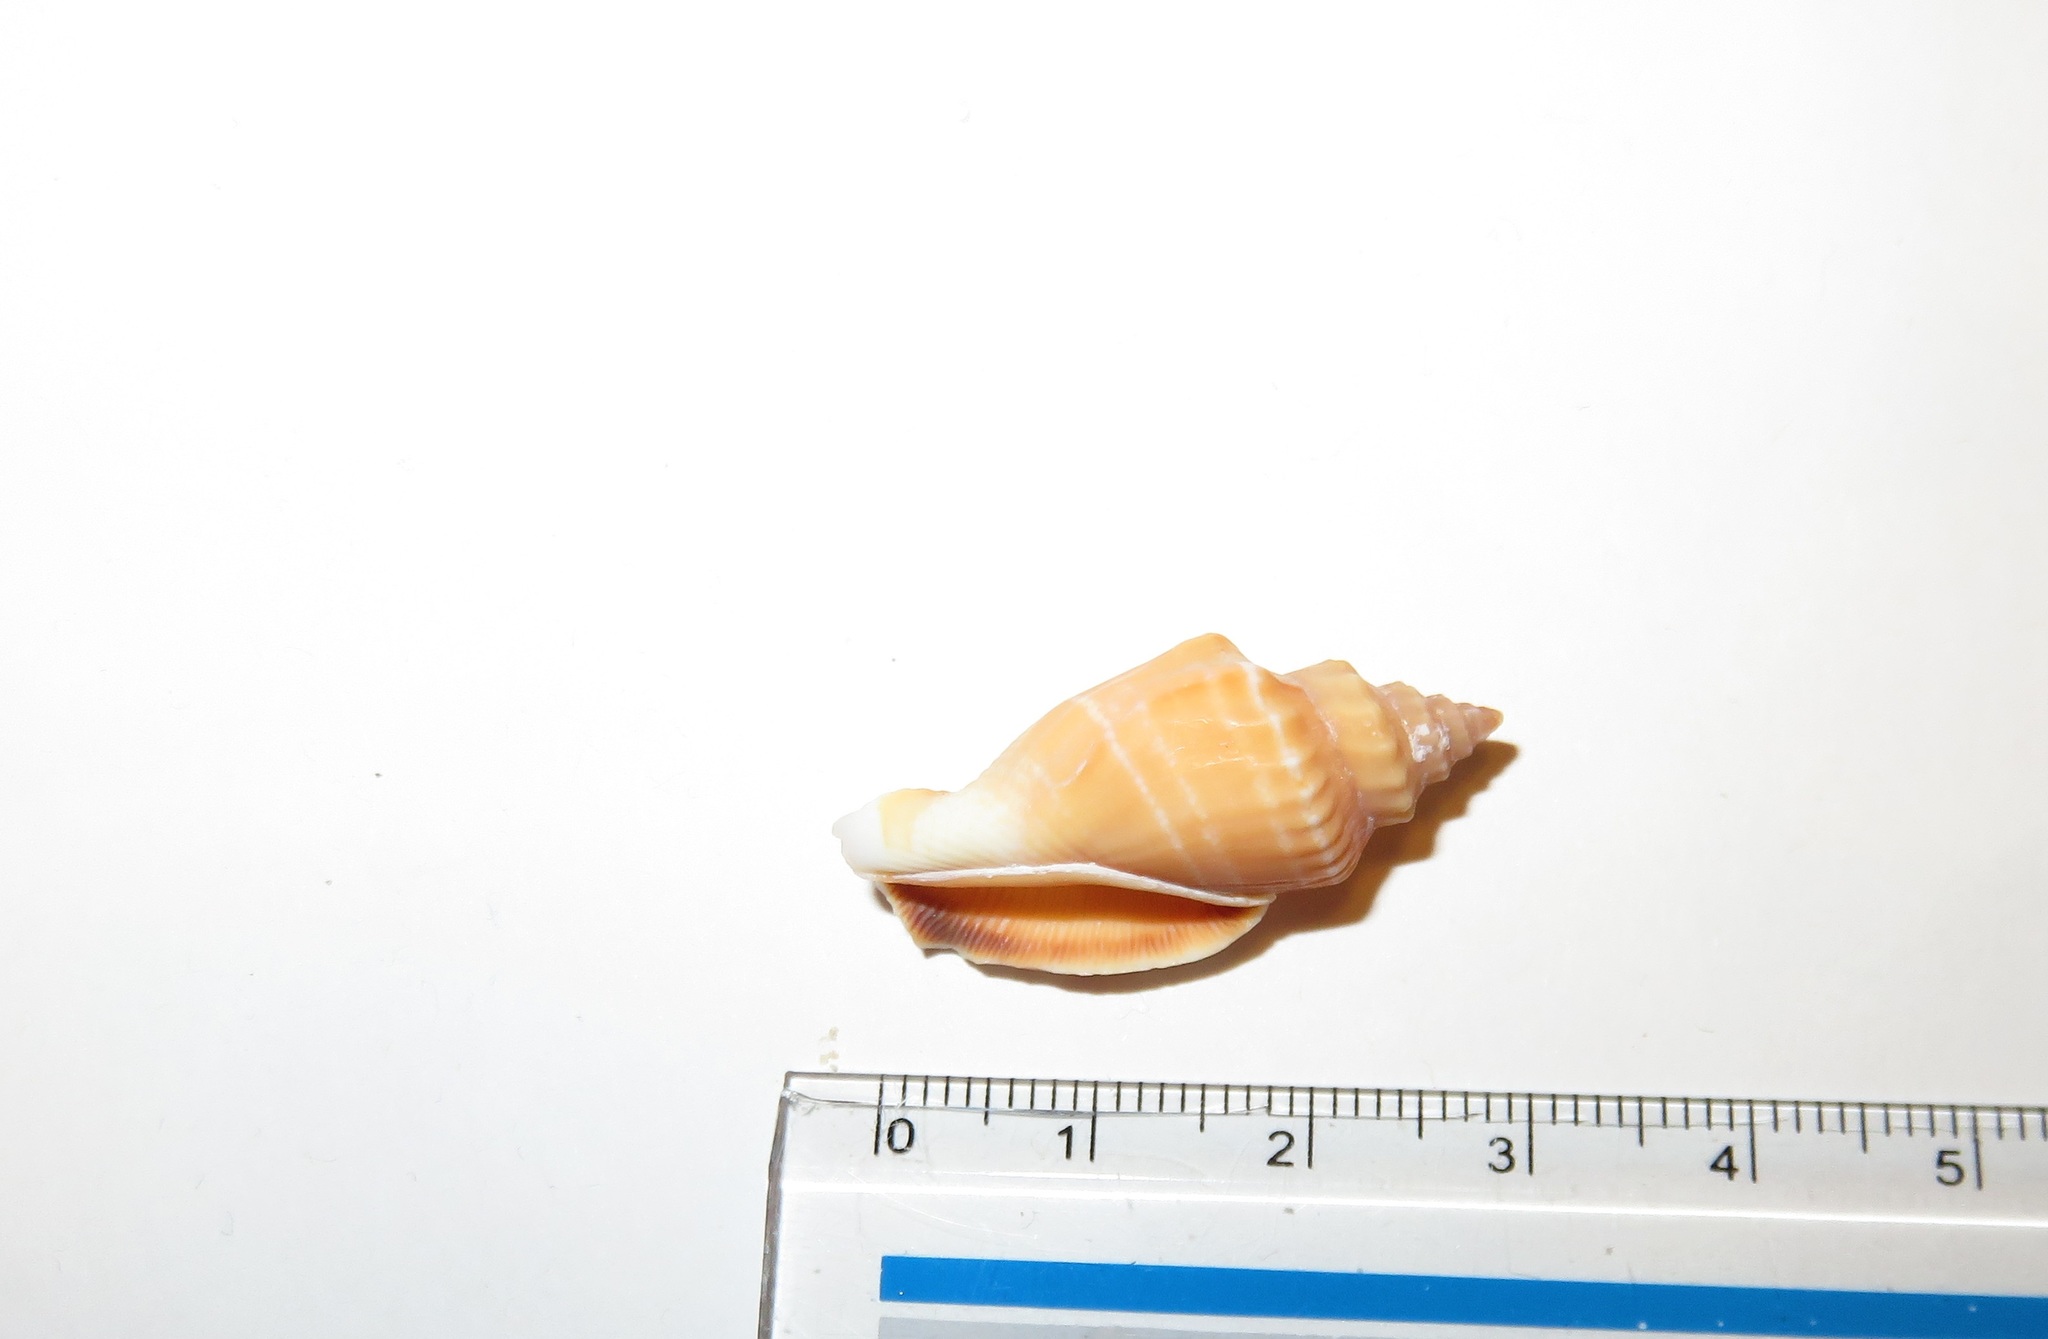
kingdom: Animalia
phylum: Mollusca
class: Gastropoda
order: Littorinimorpha
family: Strombidae
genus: Canarium
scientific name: Canarium urceus
